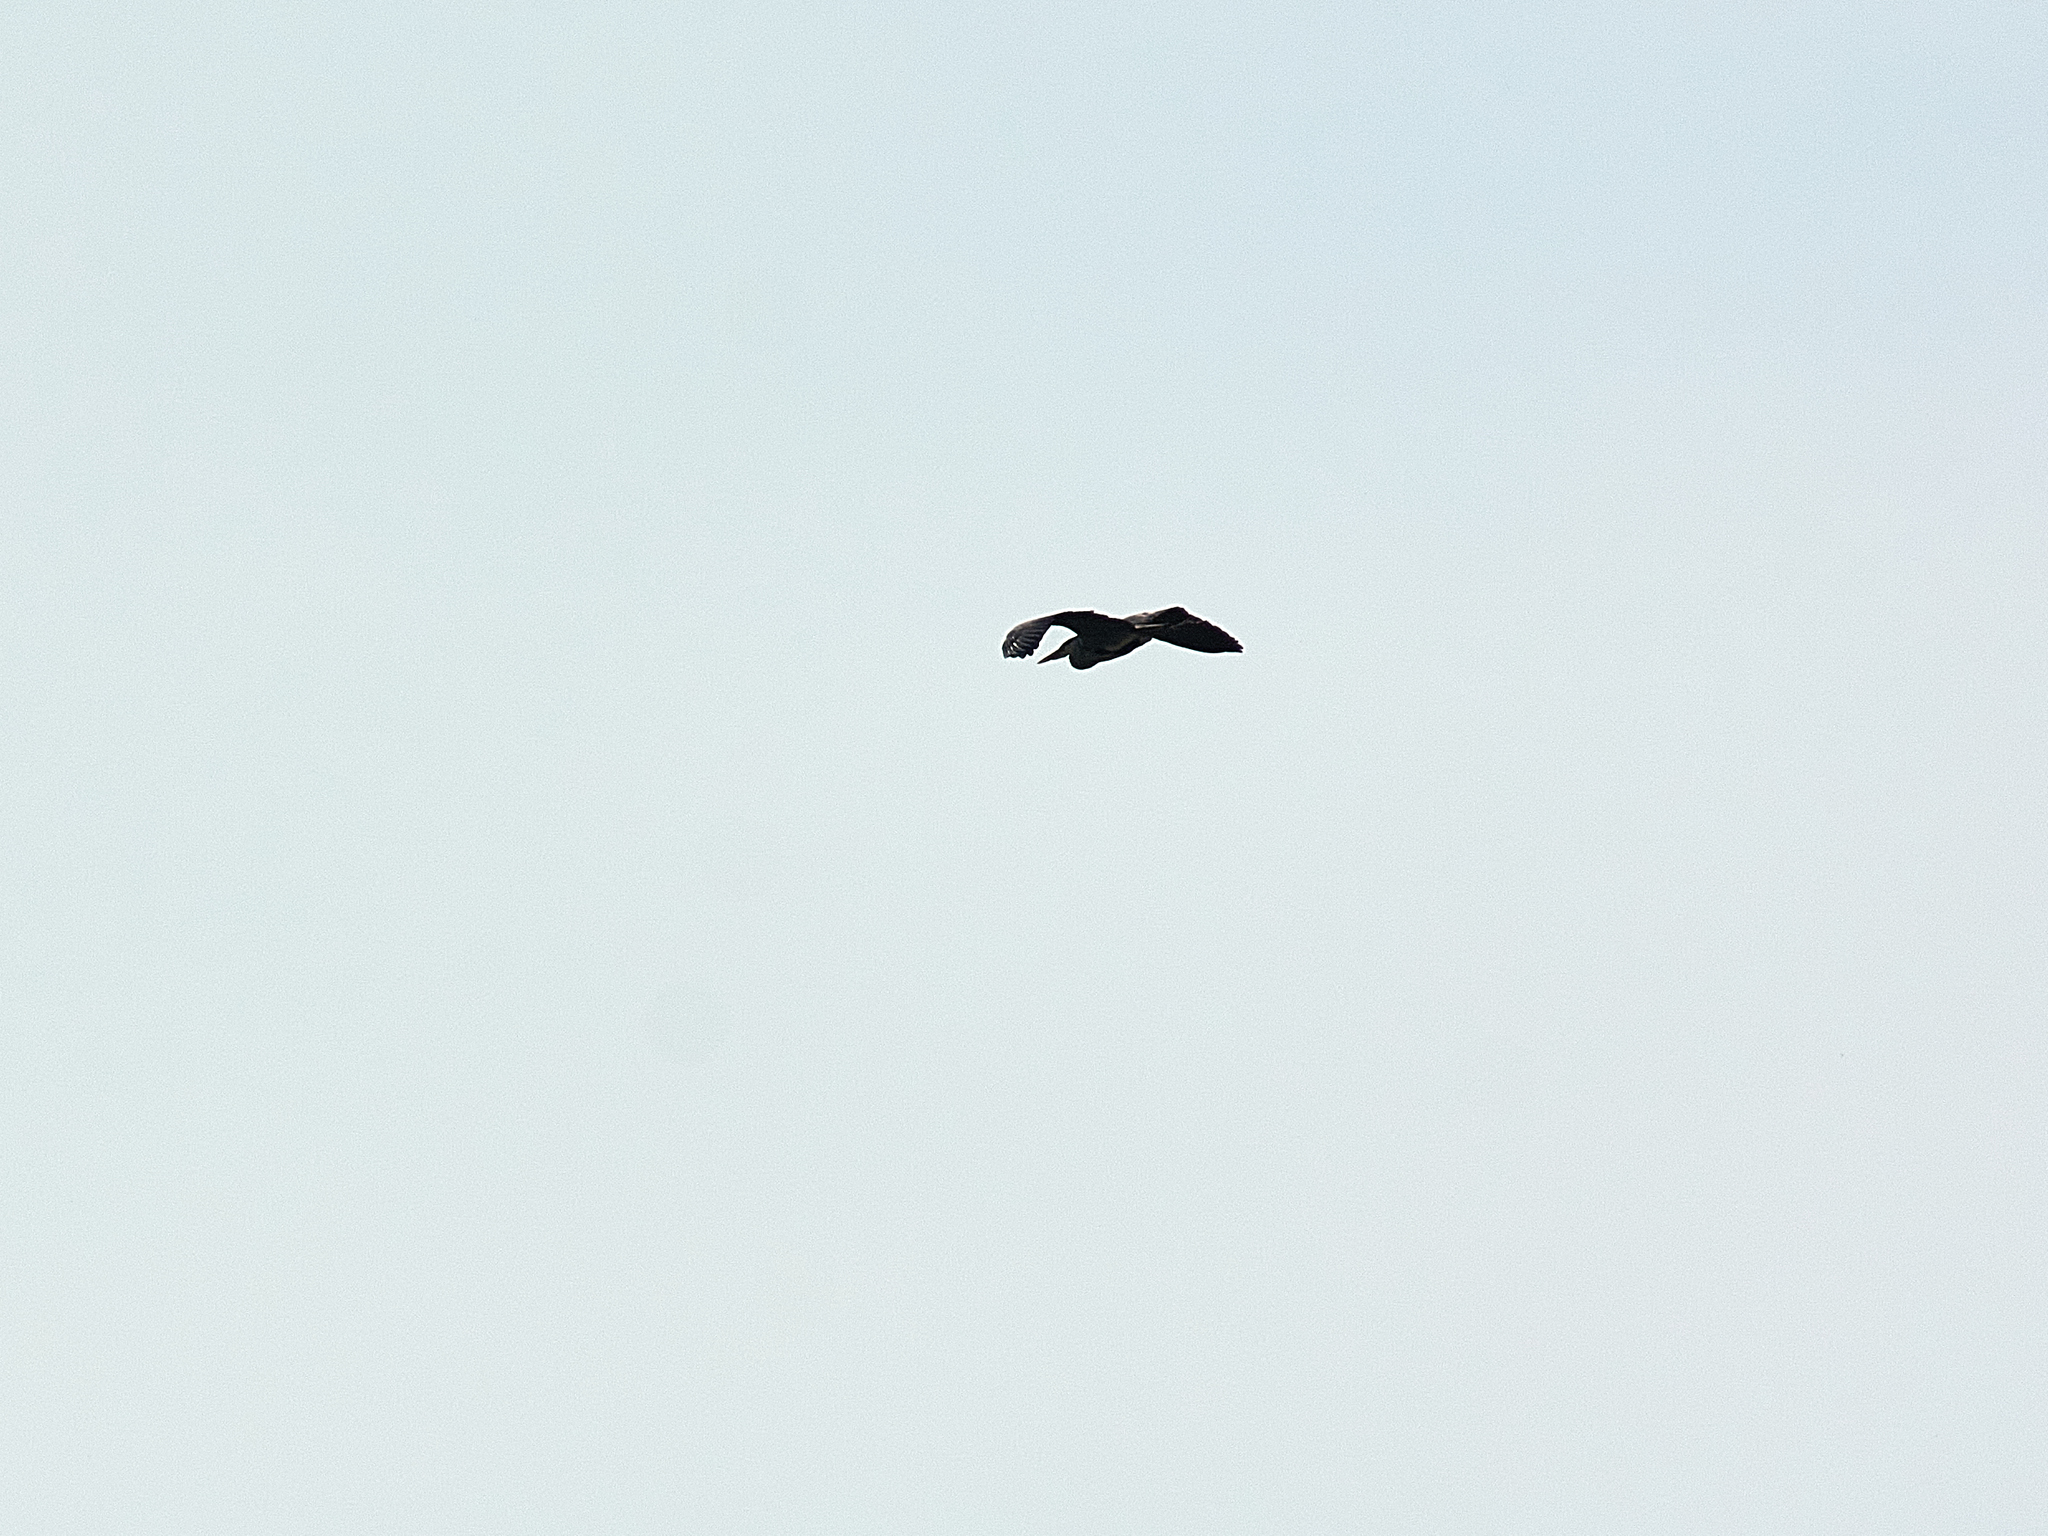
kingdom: Animalia
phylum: Chordata
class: Aves
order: Pelecaniformes
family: Ardeidae
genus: Ardea
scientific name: Ardea cinerea
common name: Grey heron
